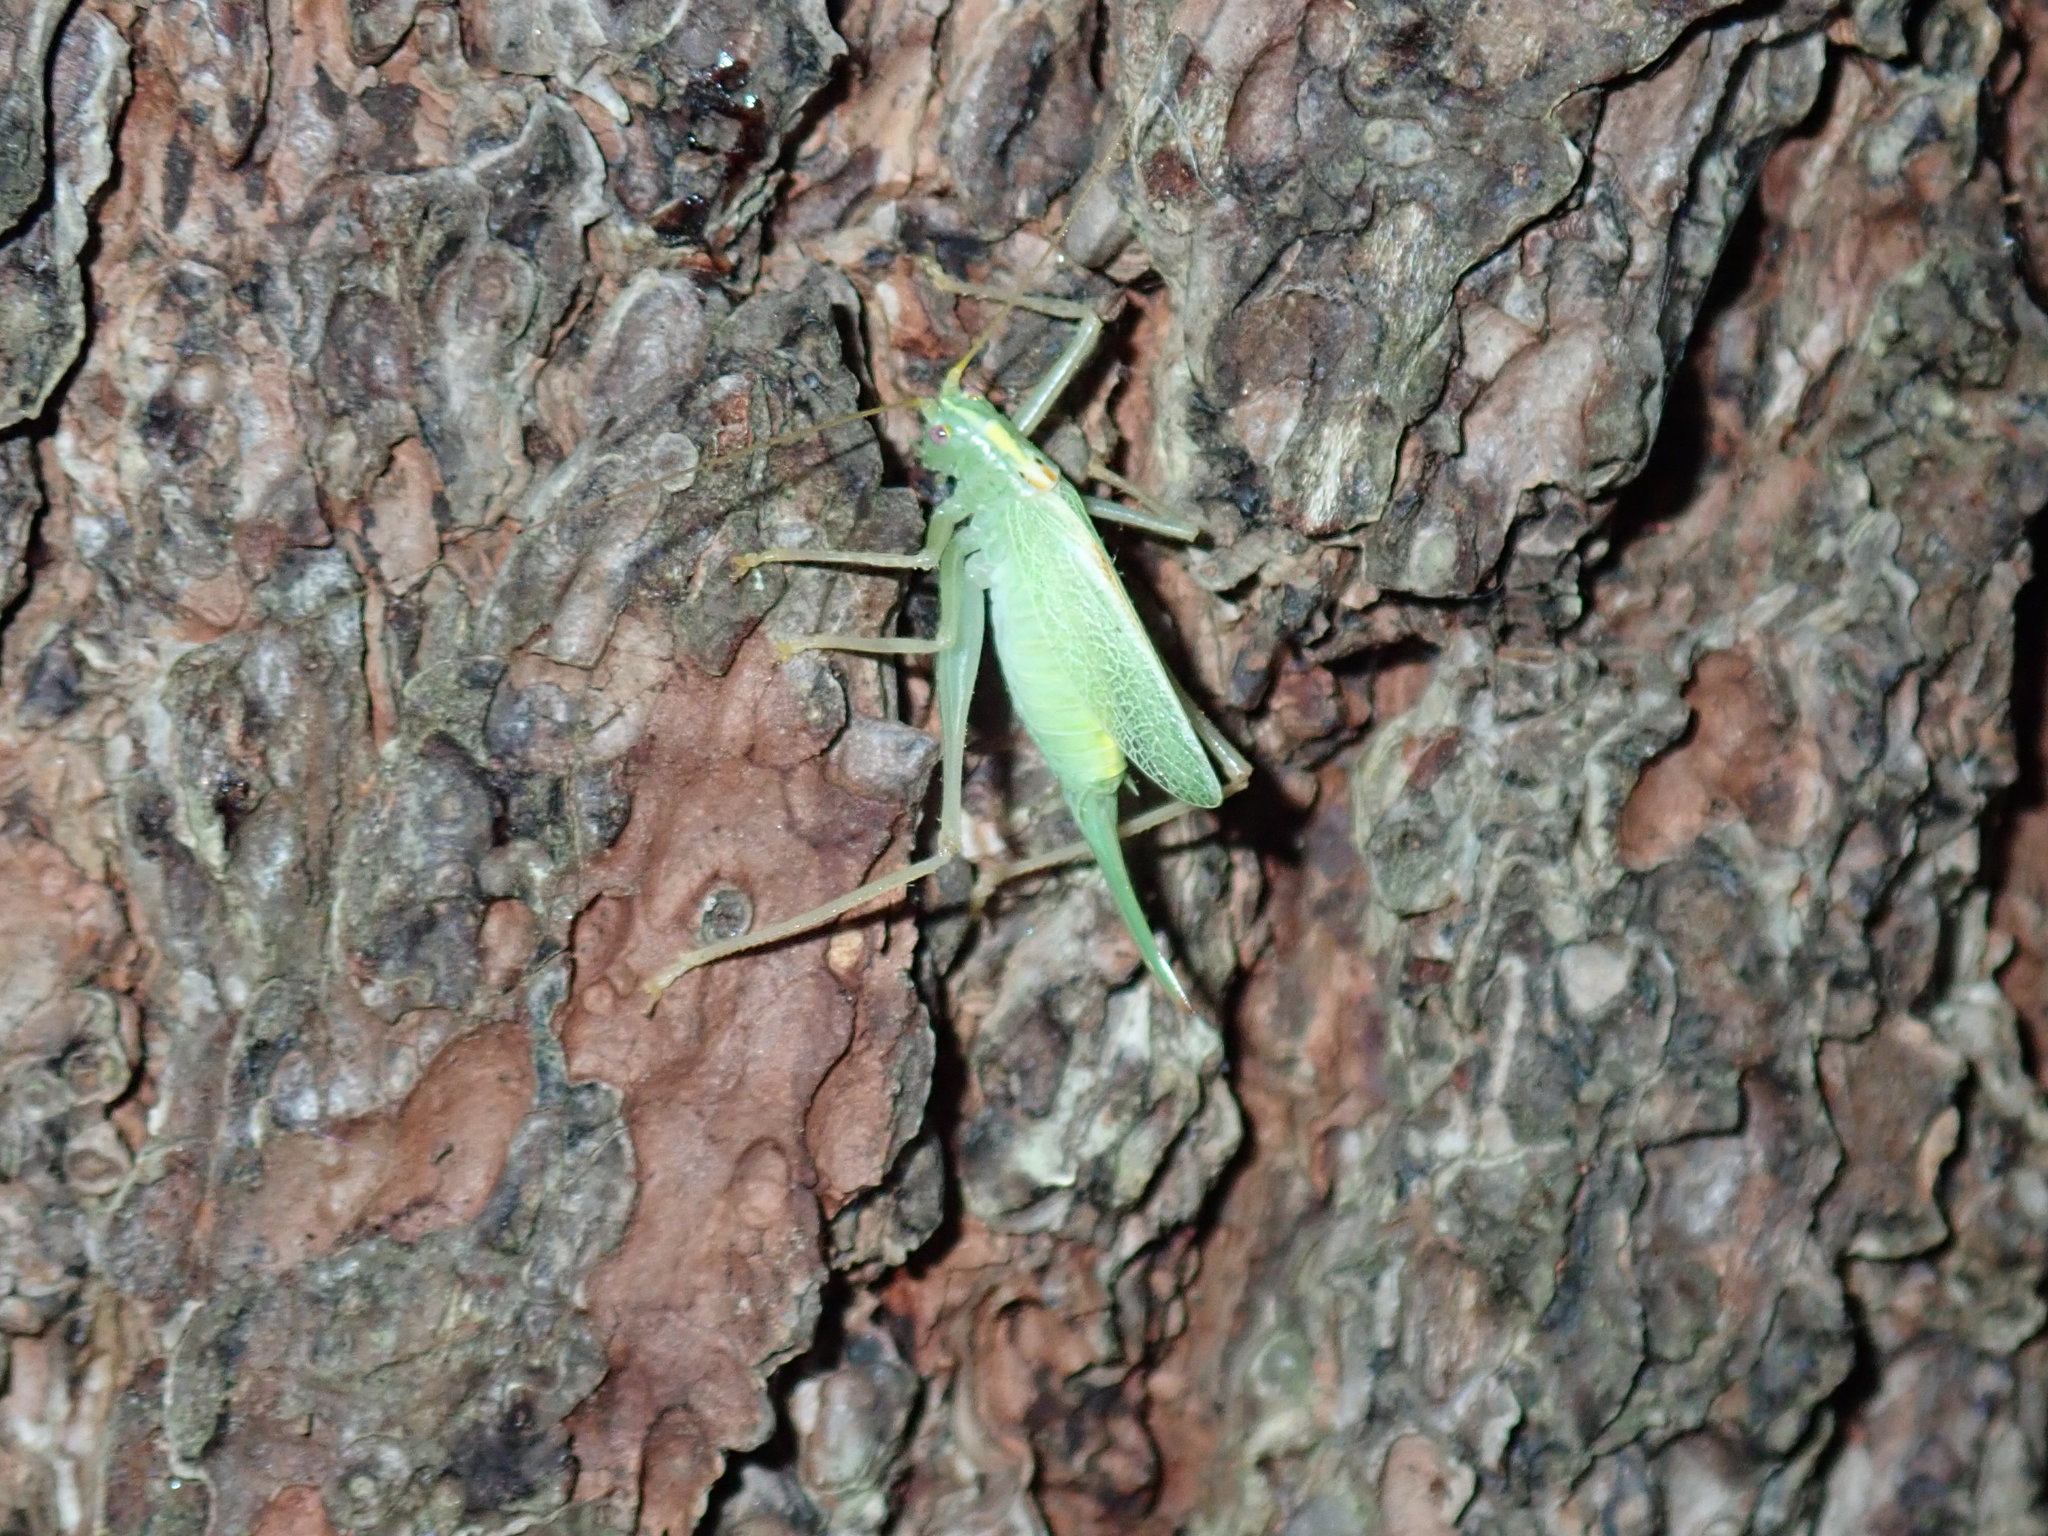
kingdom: Animalia
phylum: Arthropoda
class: Insecta
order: Orthoptera
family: Tettigoniidae
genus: Meconema
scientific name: Meconema thalassinum
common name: Oak bush-cricket
